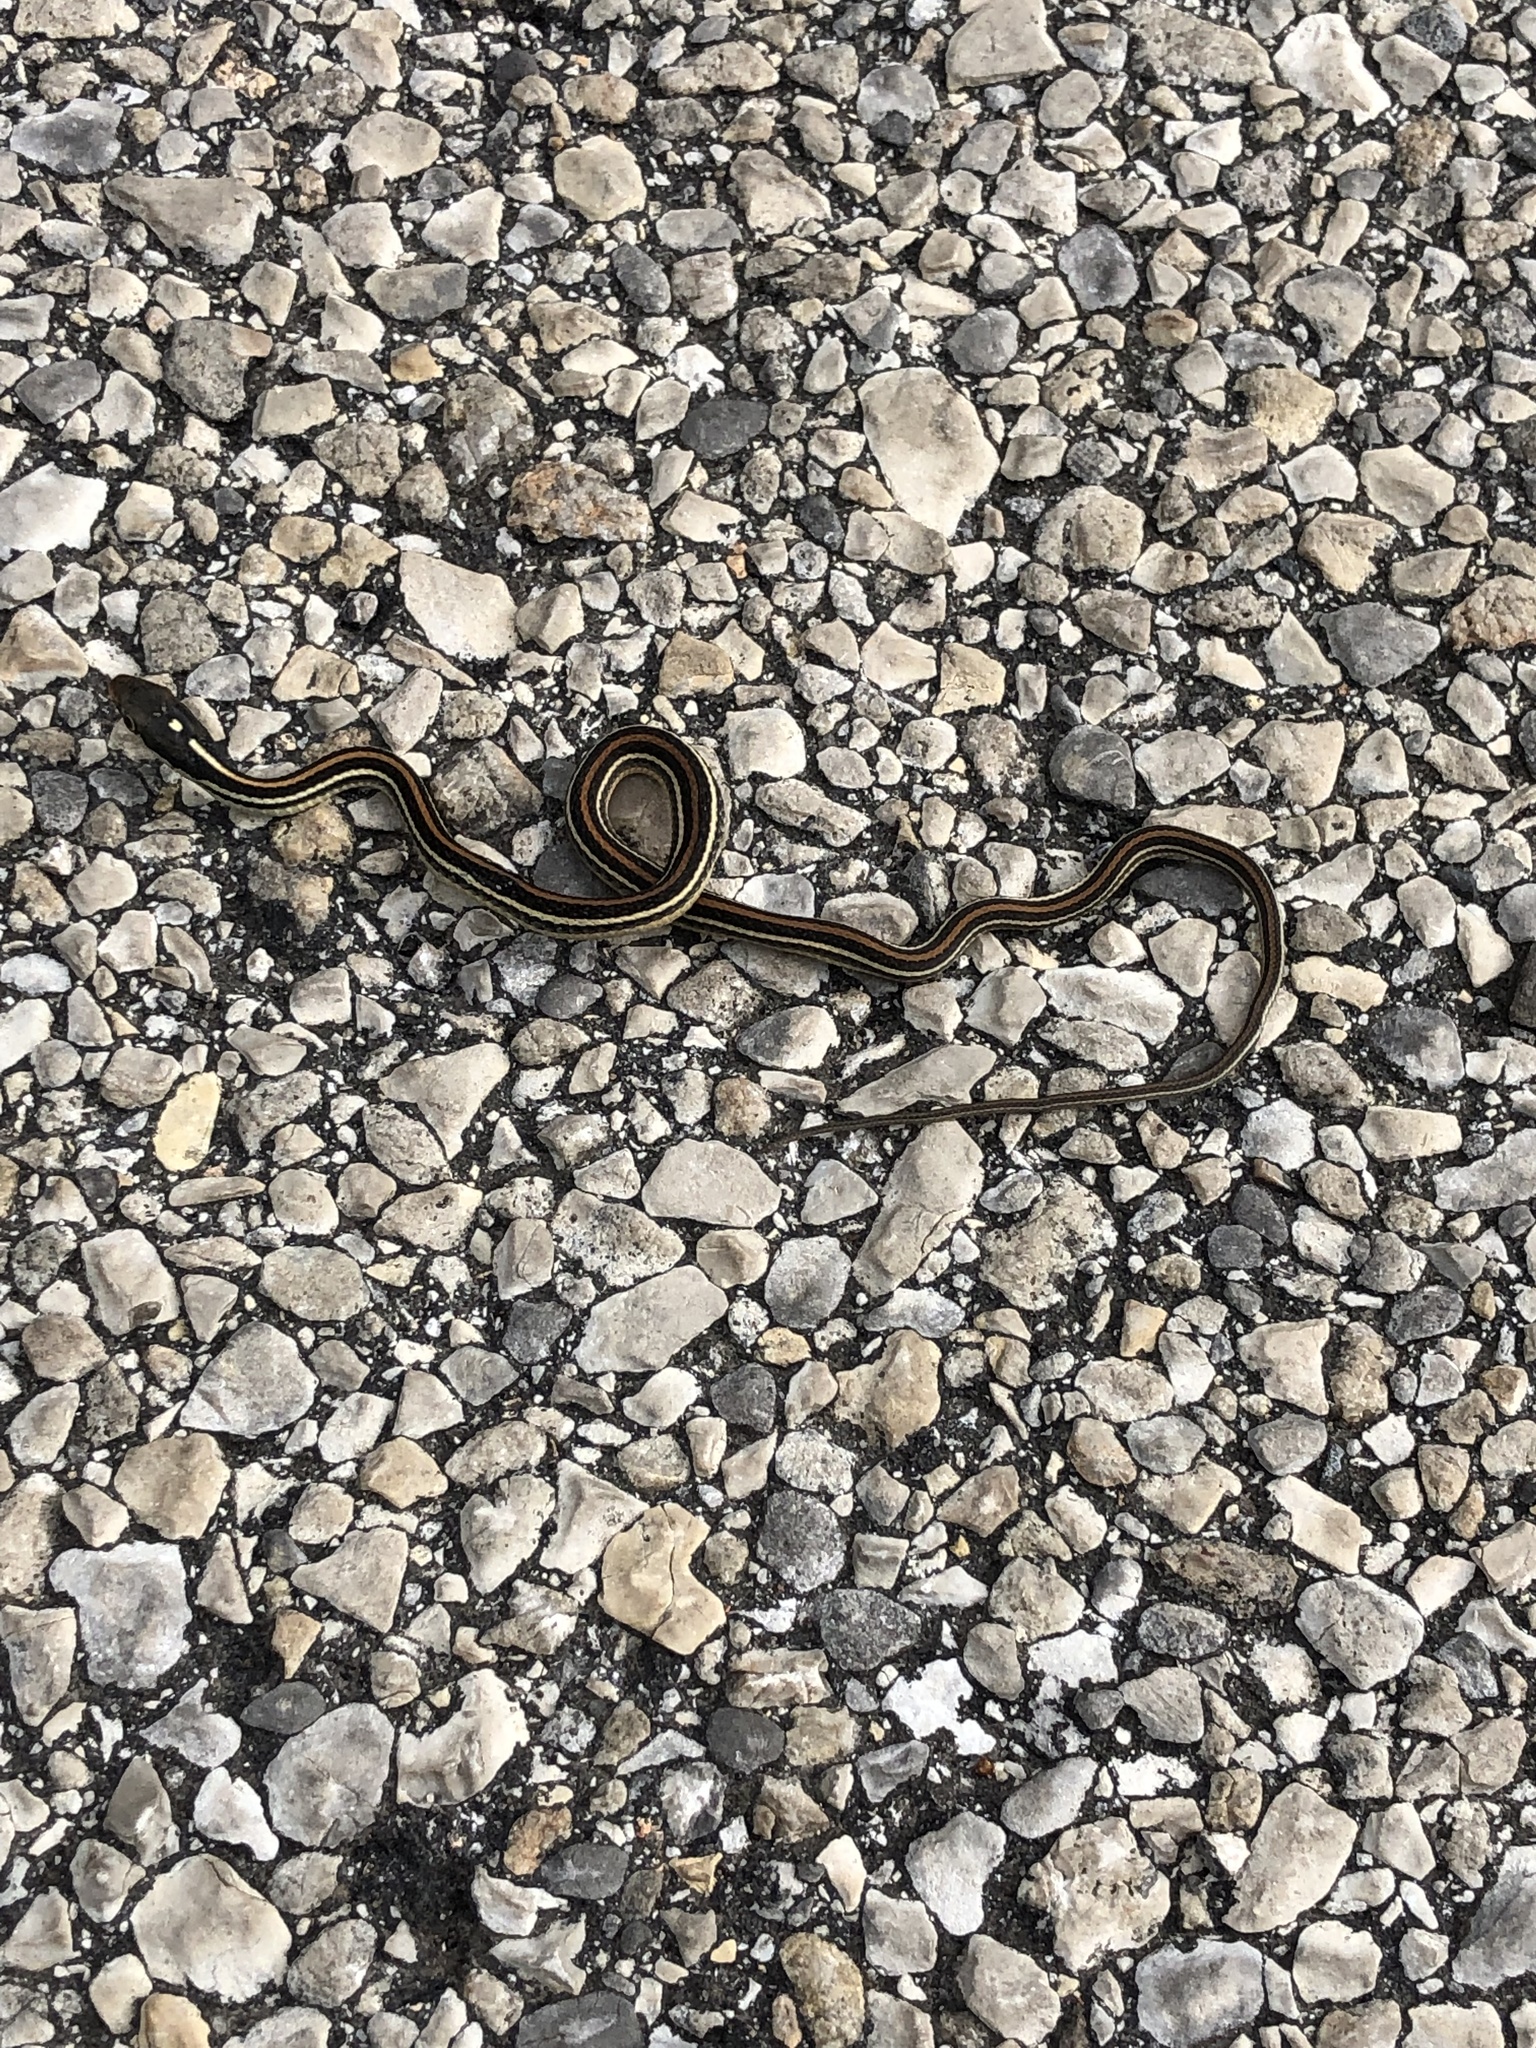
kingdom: Animalia
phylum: Chordata
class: Squamata
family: Colubridae
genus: Thamnophis
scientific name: Thamnophis proximus
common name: Western ribbon snake
